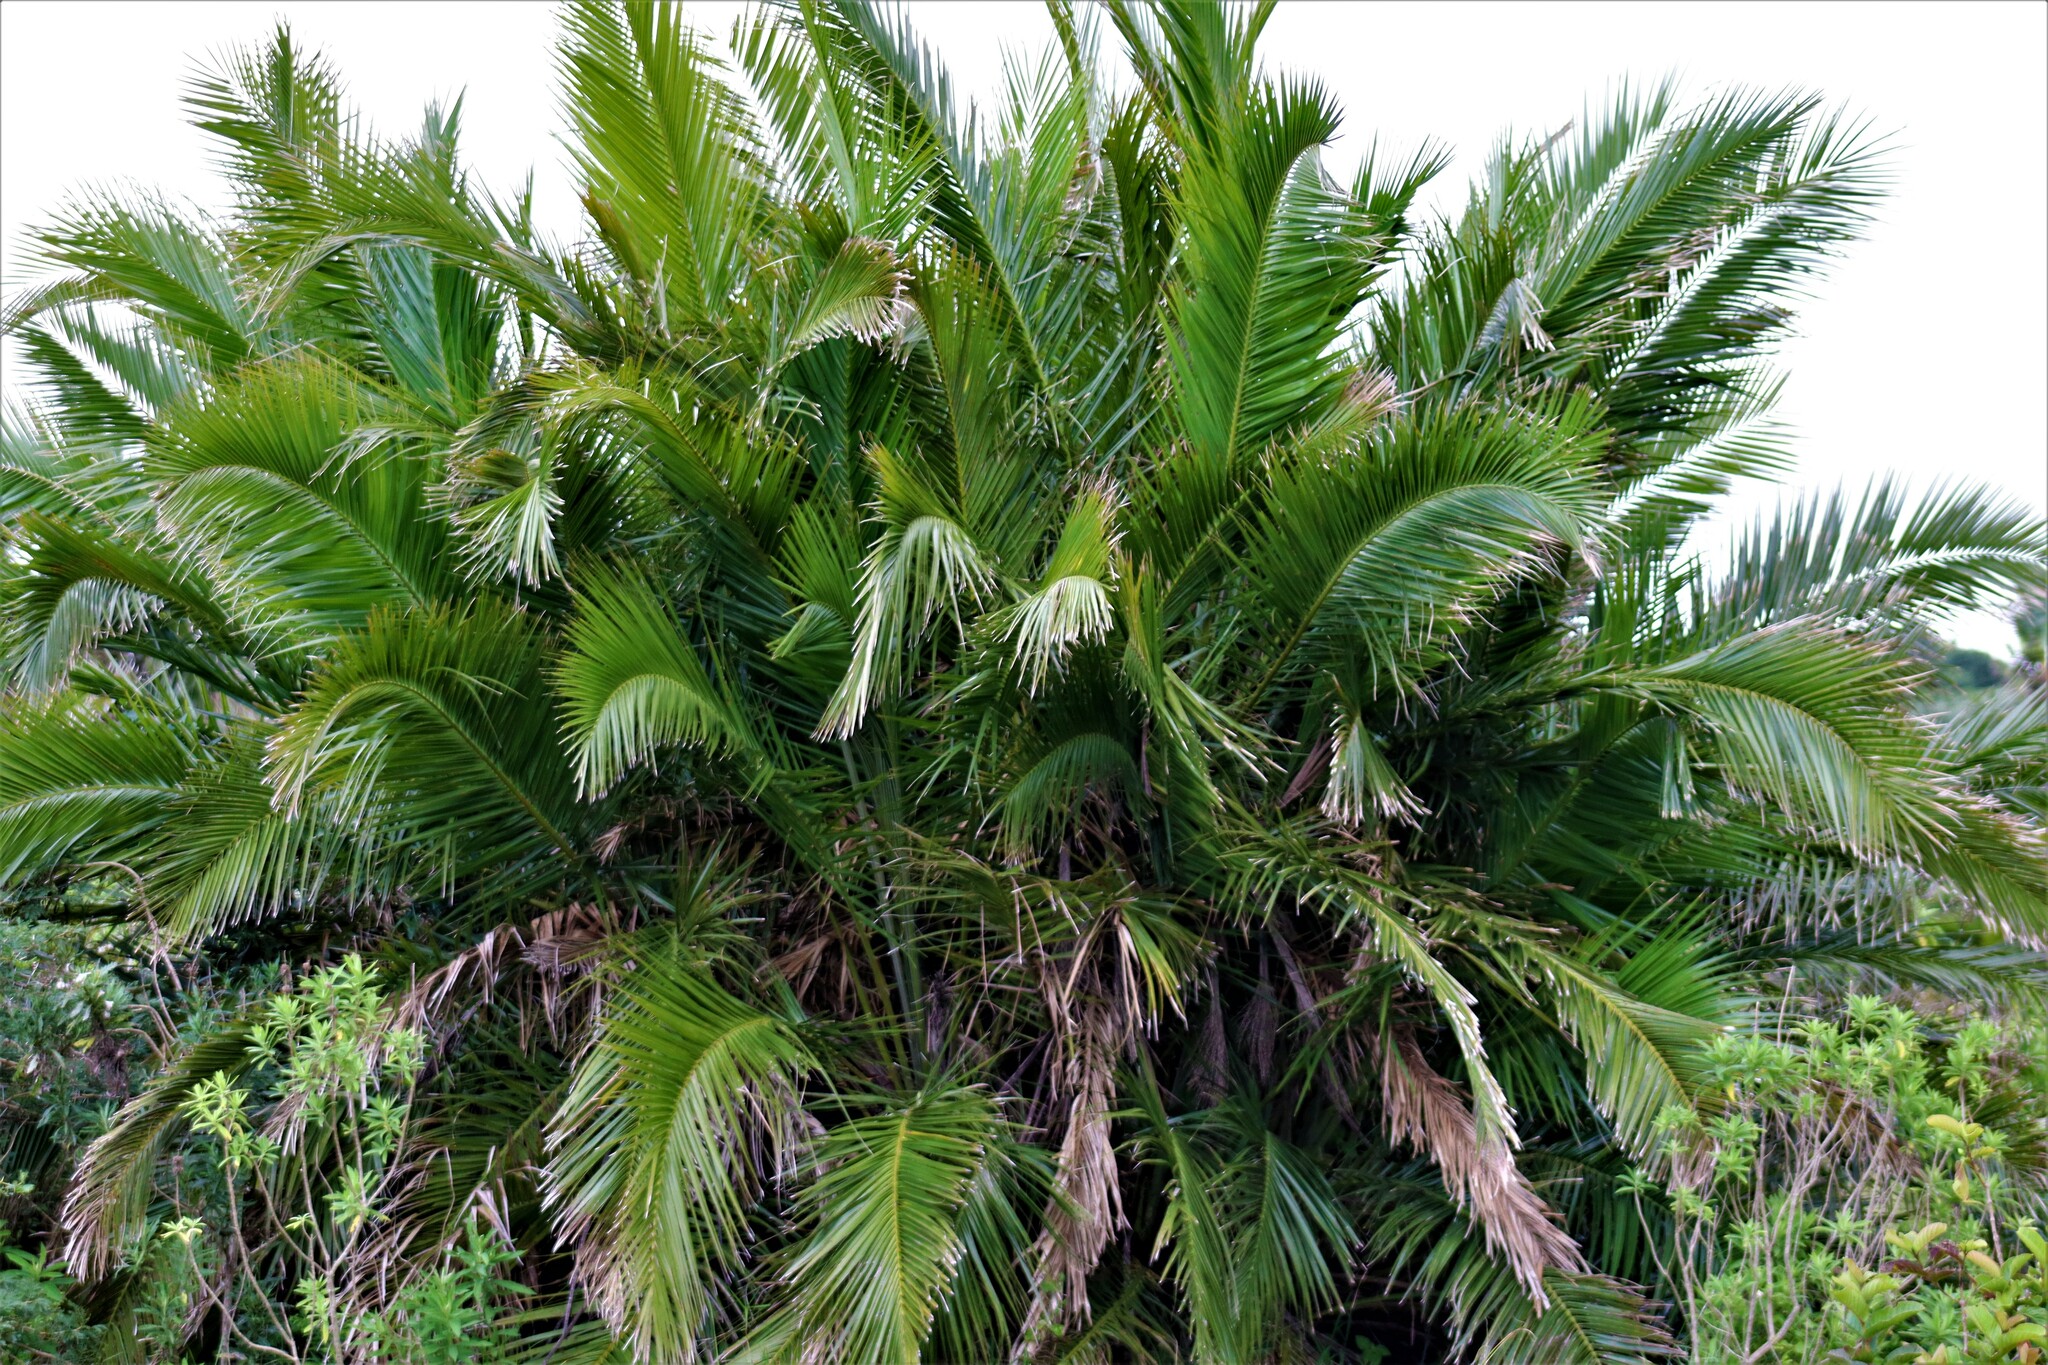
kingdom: Plantae
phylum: Tracheophyta
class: Liliopsida
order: Arecales
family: Arecaceae
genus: Phoenix
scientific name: Phoenix reclinata
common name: Senegal date palm
